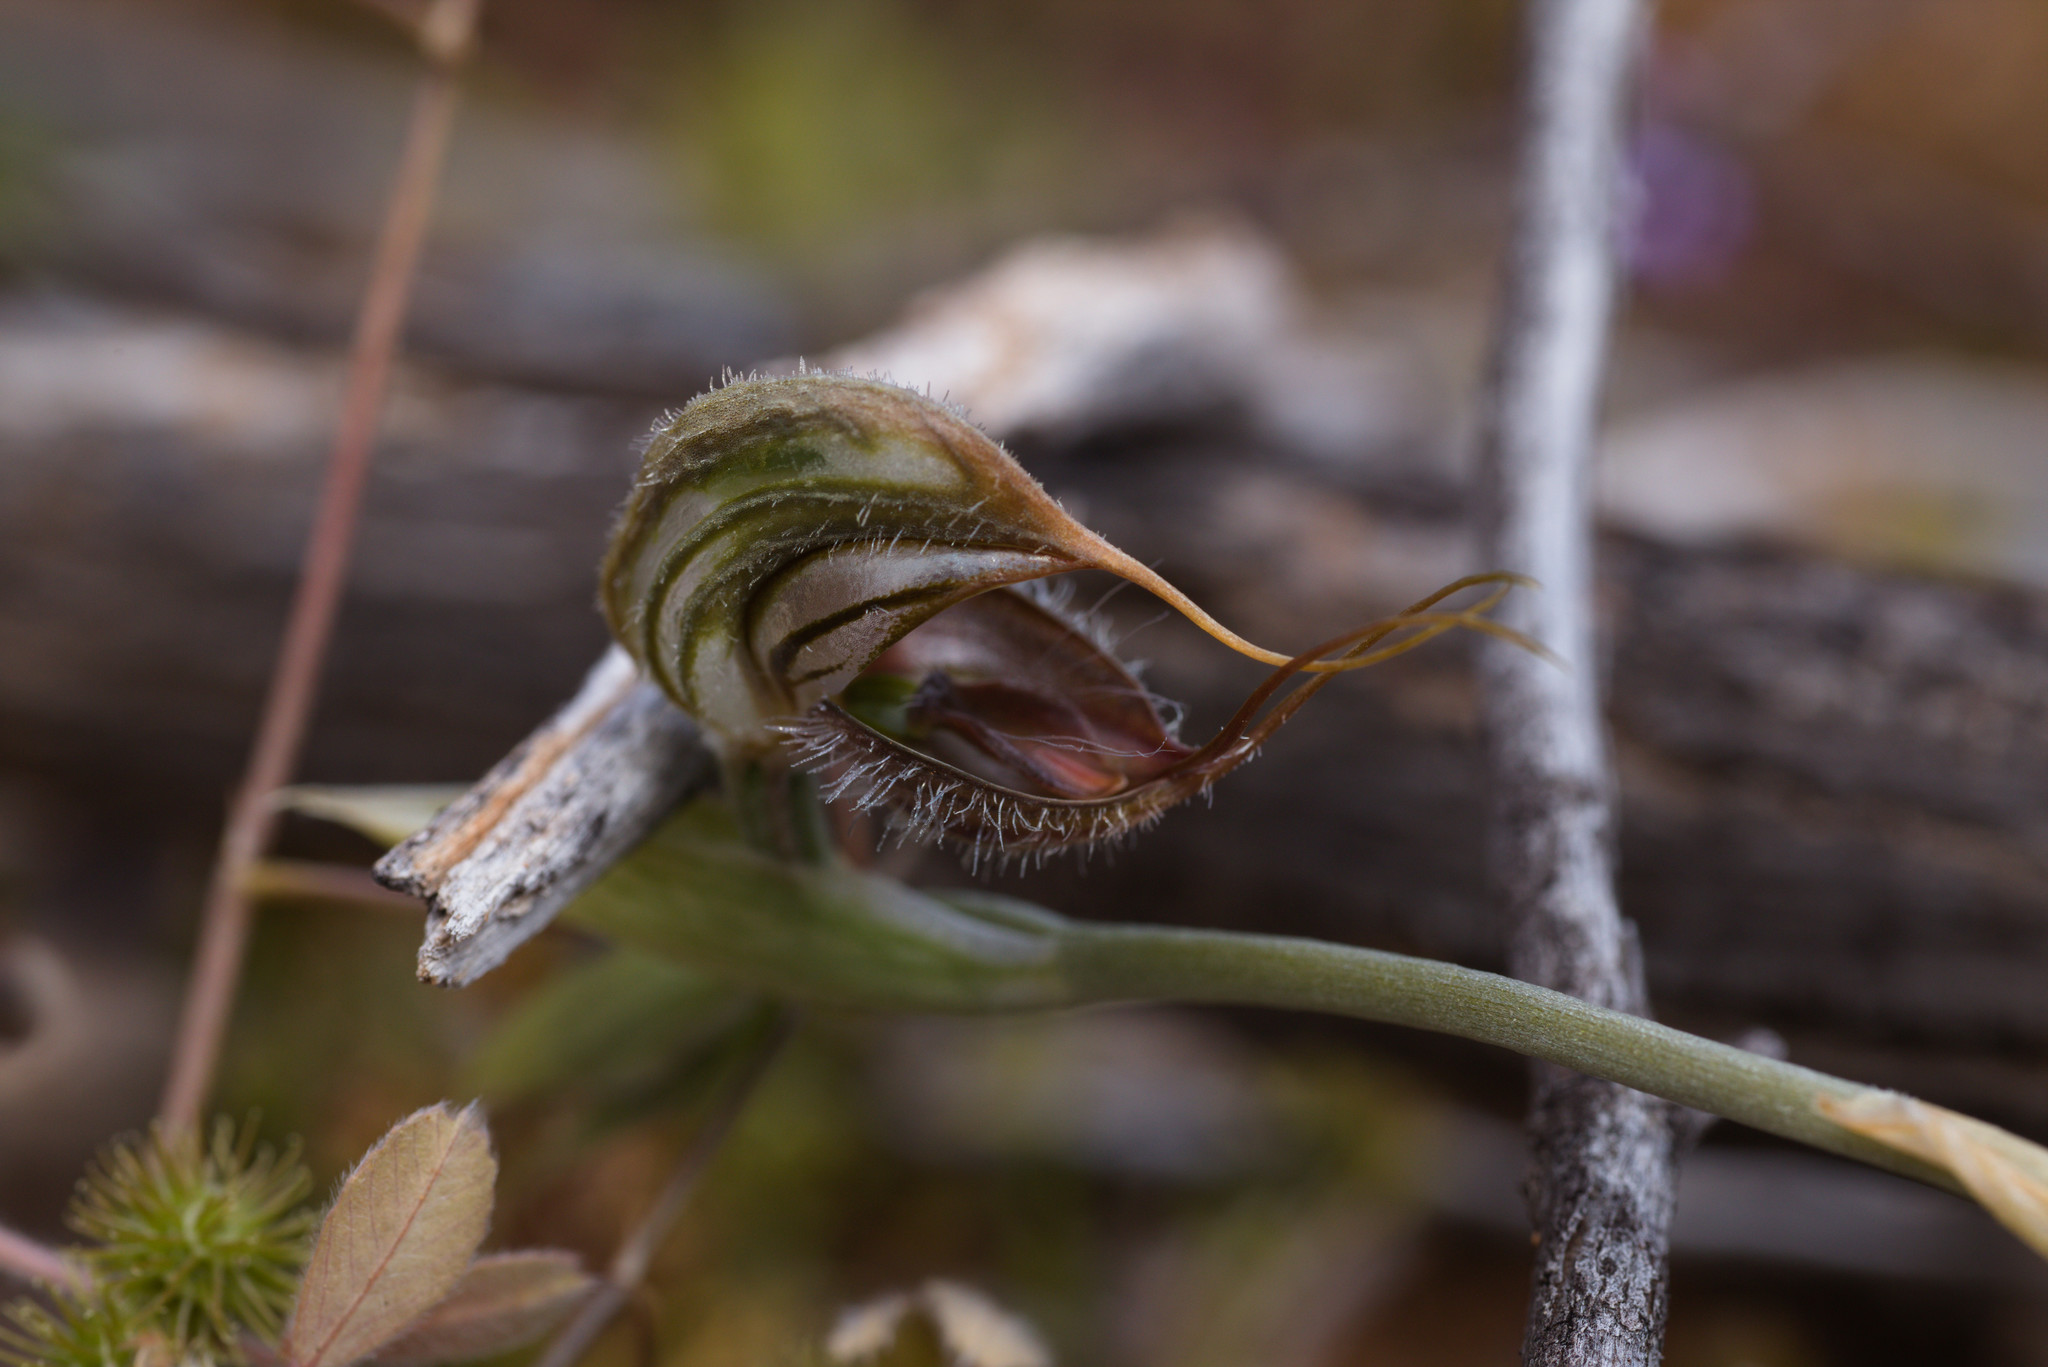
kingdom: Plantae
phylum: Tracheophyta
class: Liliopsida
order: Asparagales
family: Orchidaceae
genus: Pterostylis
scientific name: Pterostylis spathulata
